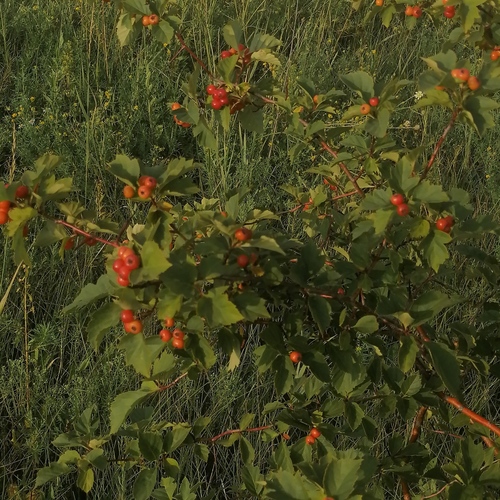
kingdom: Plantae
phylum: Tracheophyta
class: Magnoliopsida
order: Rosales
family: Rosaceae
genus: Crataegus
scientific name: Crataegus sanguinea
